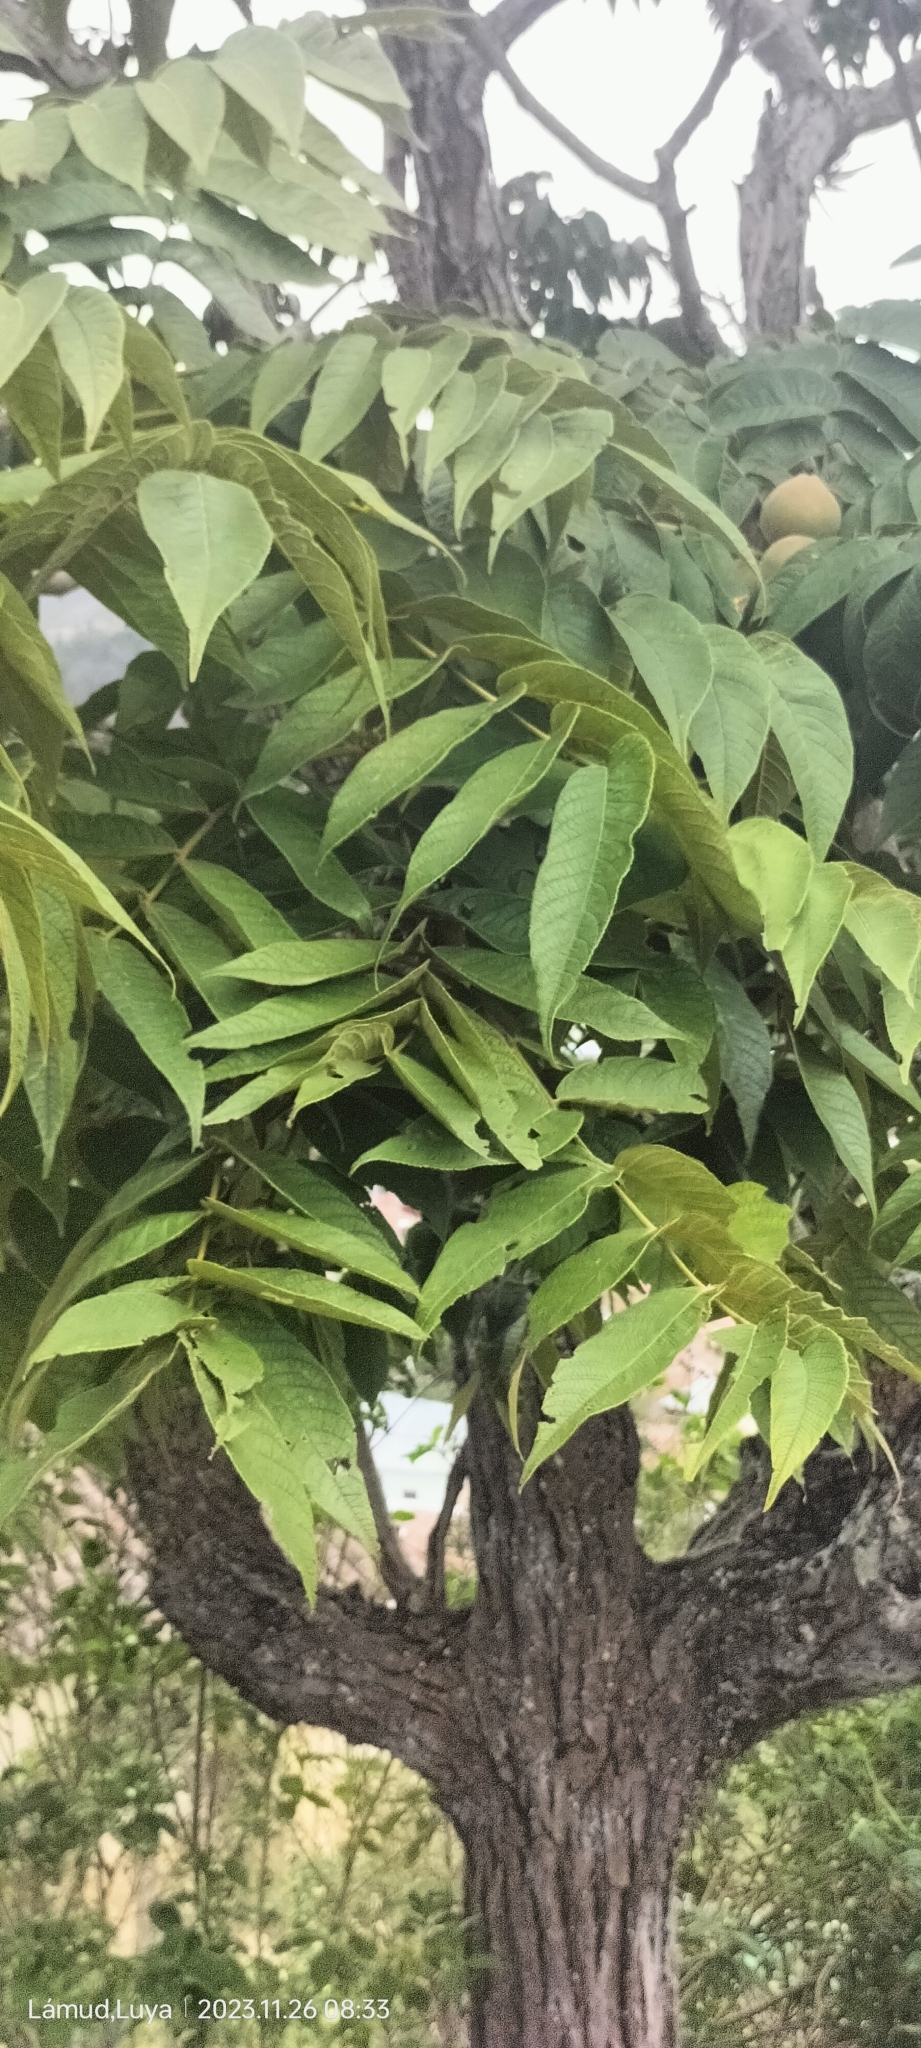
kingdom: Plantae
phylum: Tracheophyta
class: Magnoliopsida
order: Fagales
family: Juglandaceae
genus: Juglans
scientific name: Juglans neotropica
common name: Andean walnut
